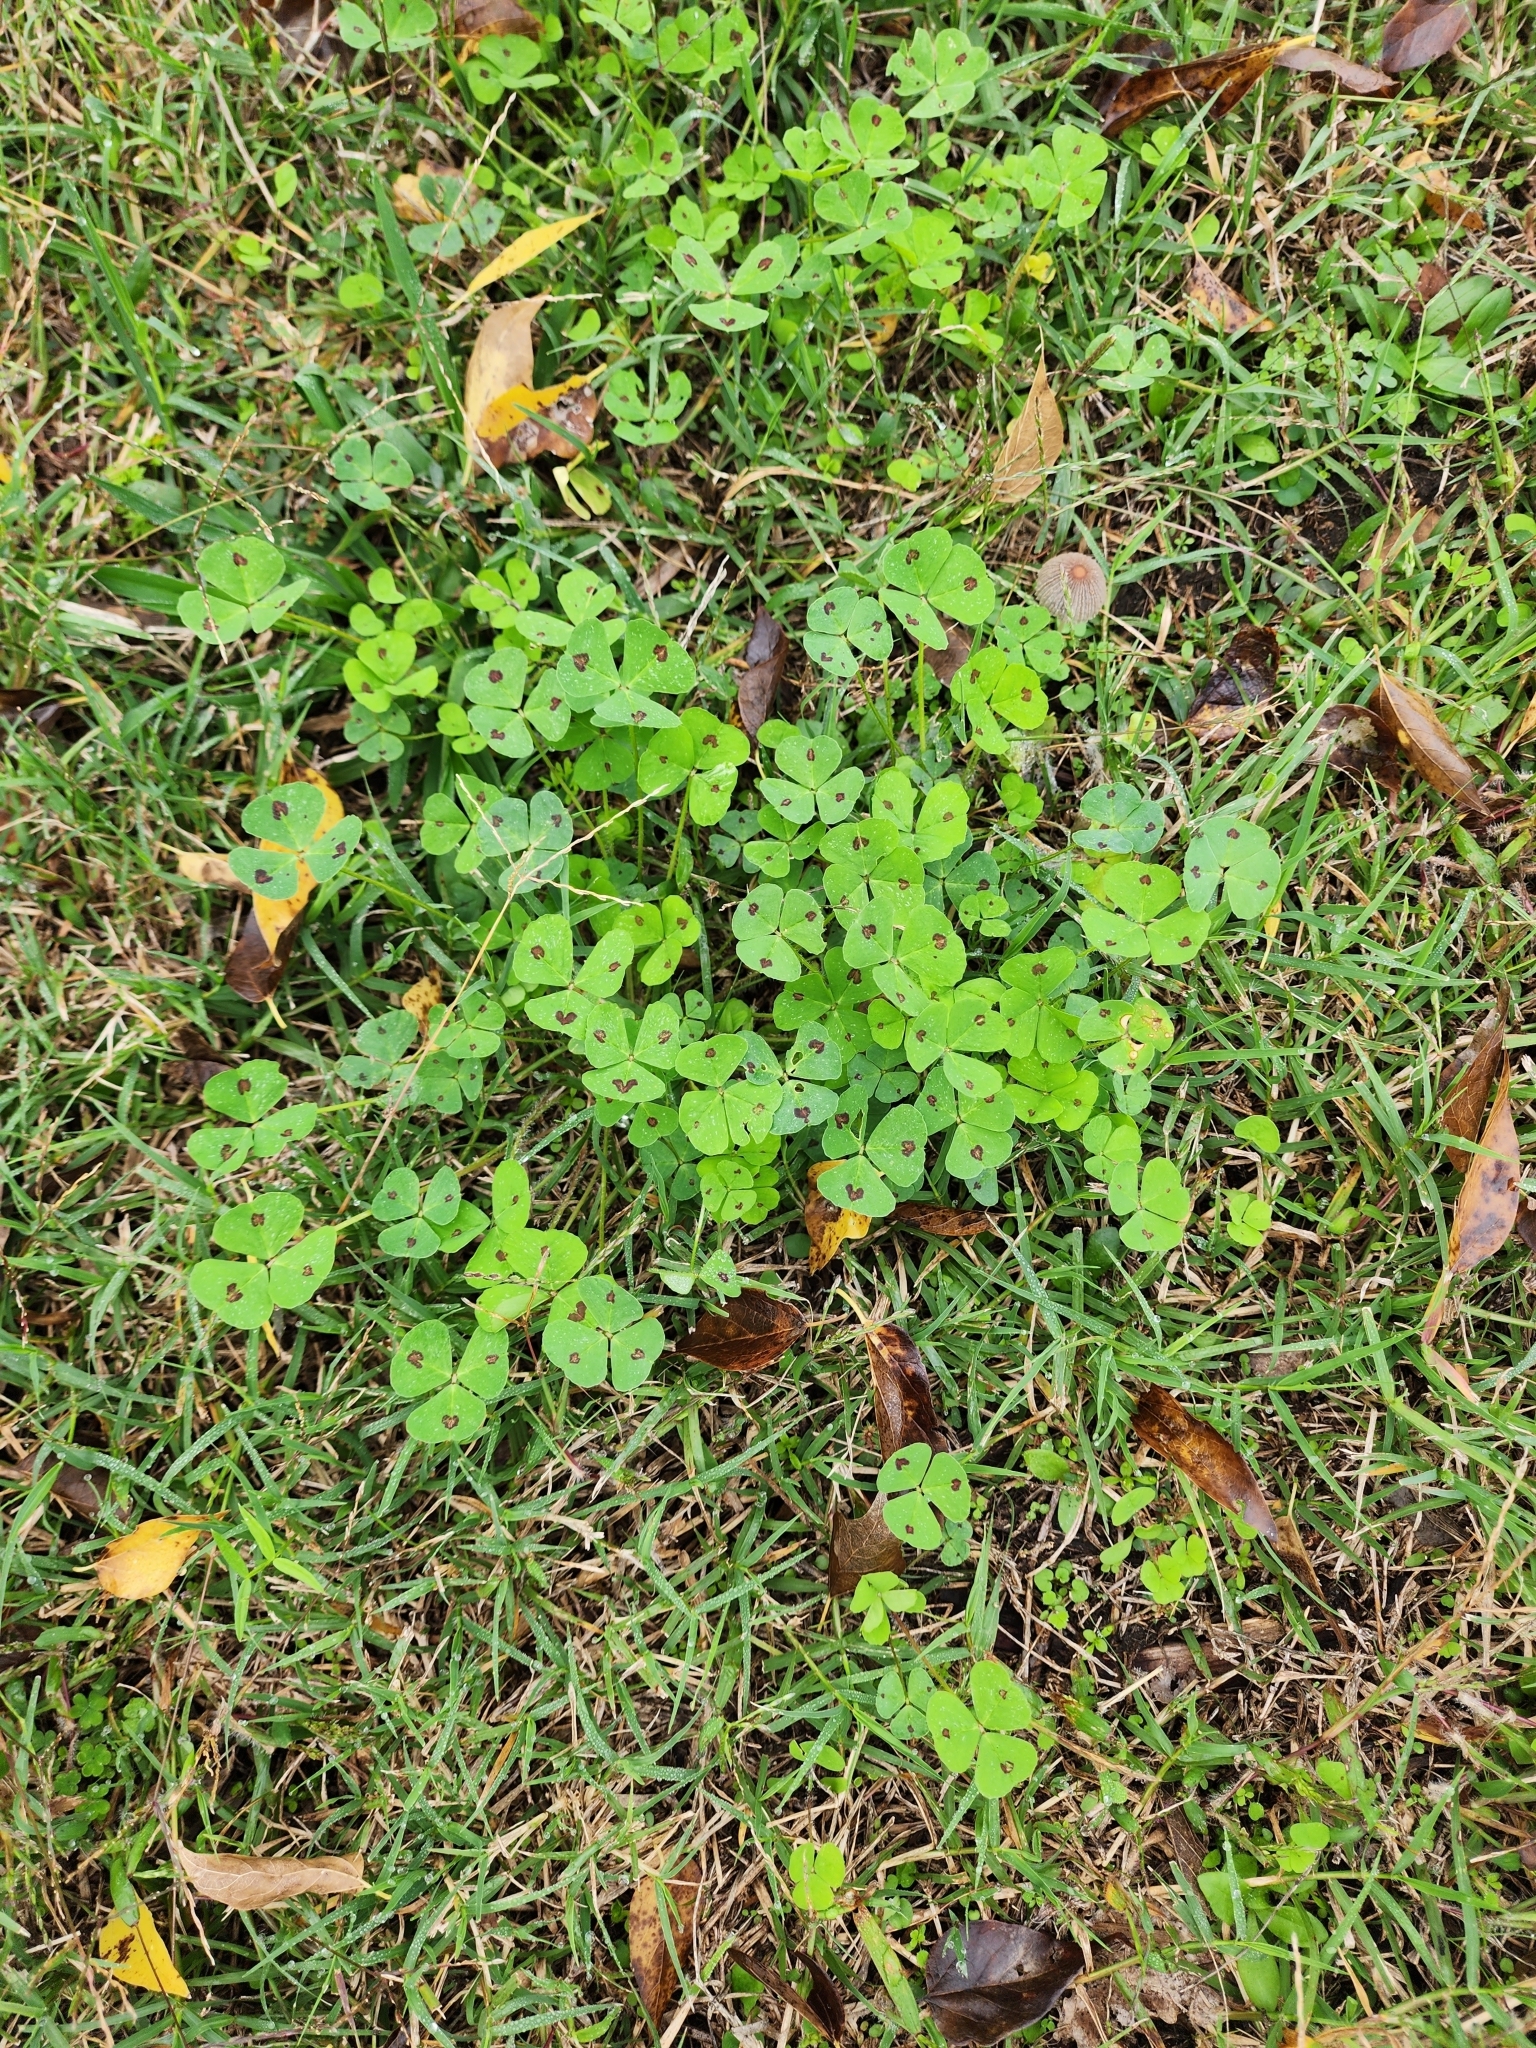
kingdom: Plantae
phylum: Tracheophyta
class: Magnoliopsida
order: Fabales
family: Fabaceae
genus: Medicago
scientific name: Medicago arabica
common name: Spotted medick
